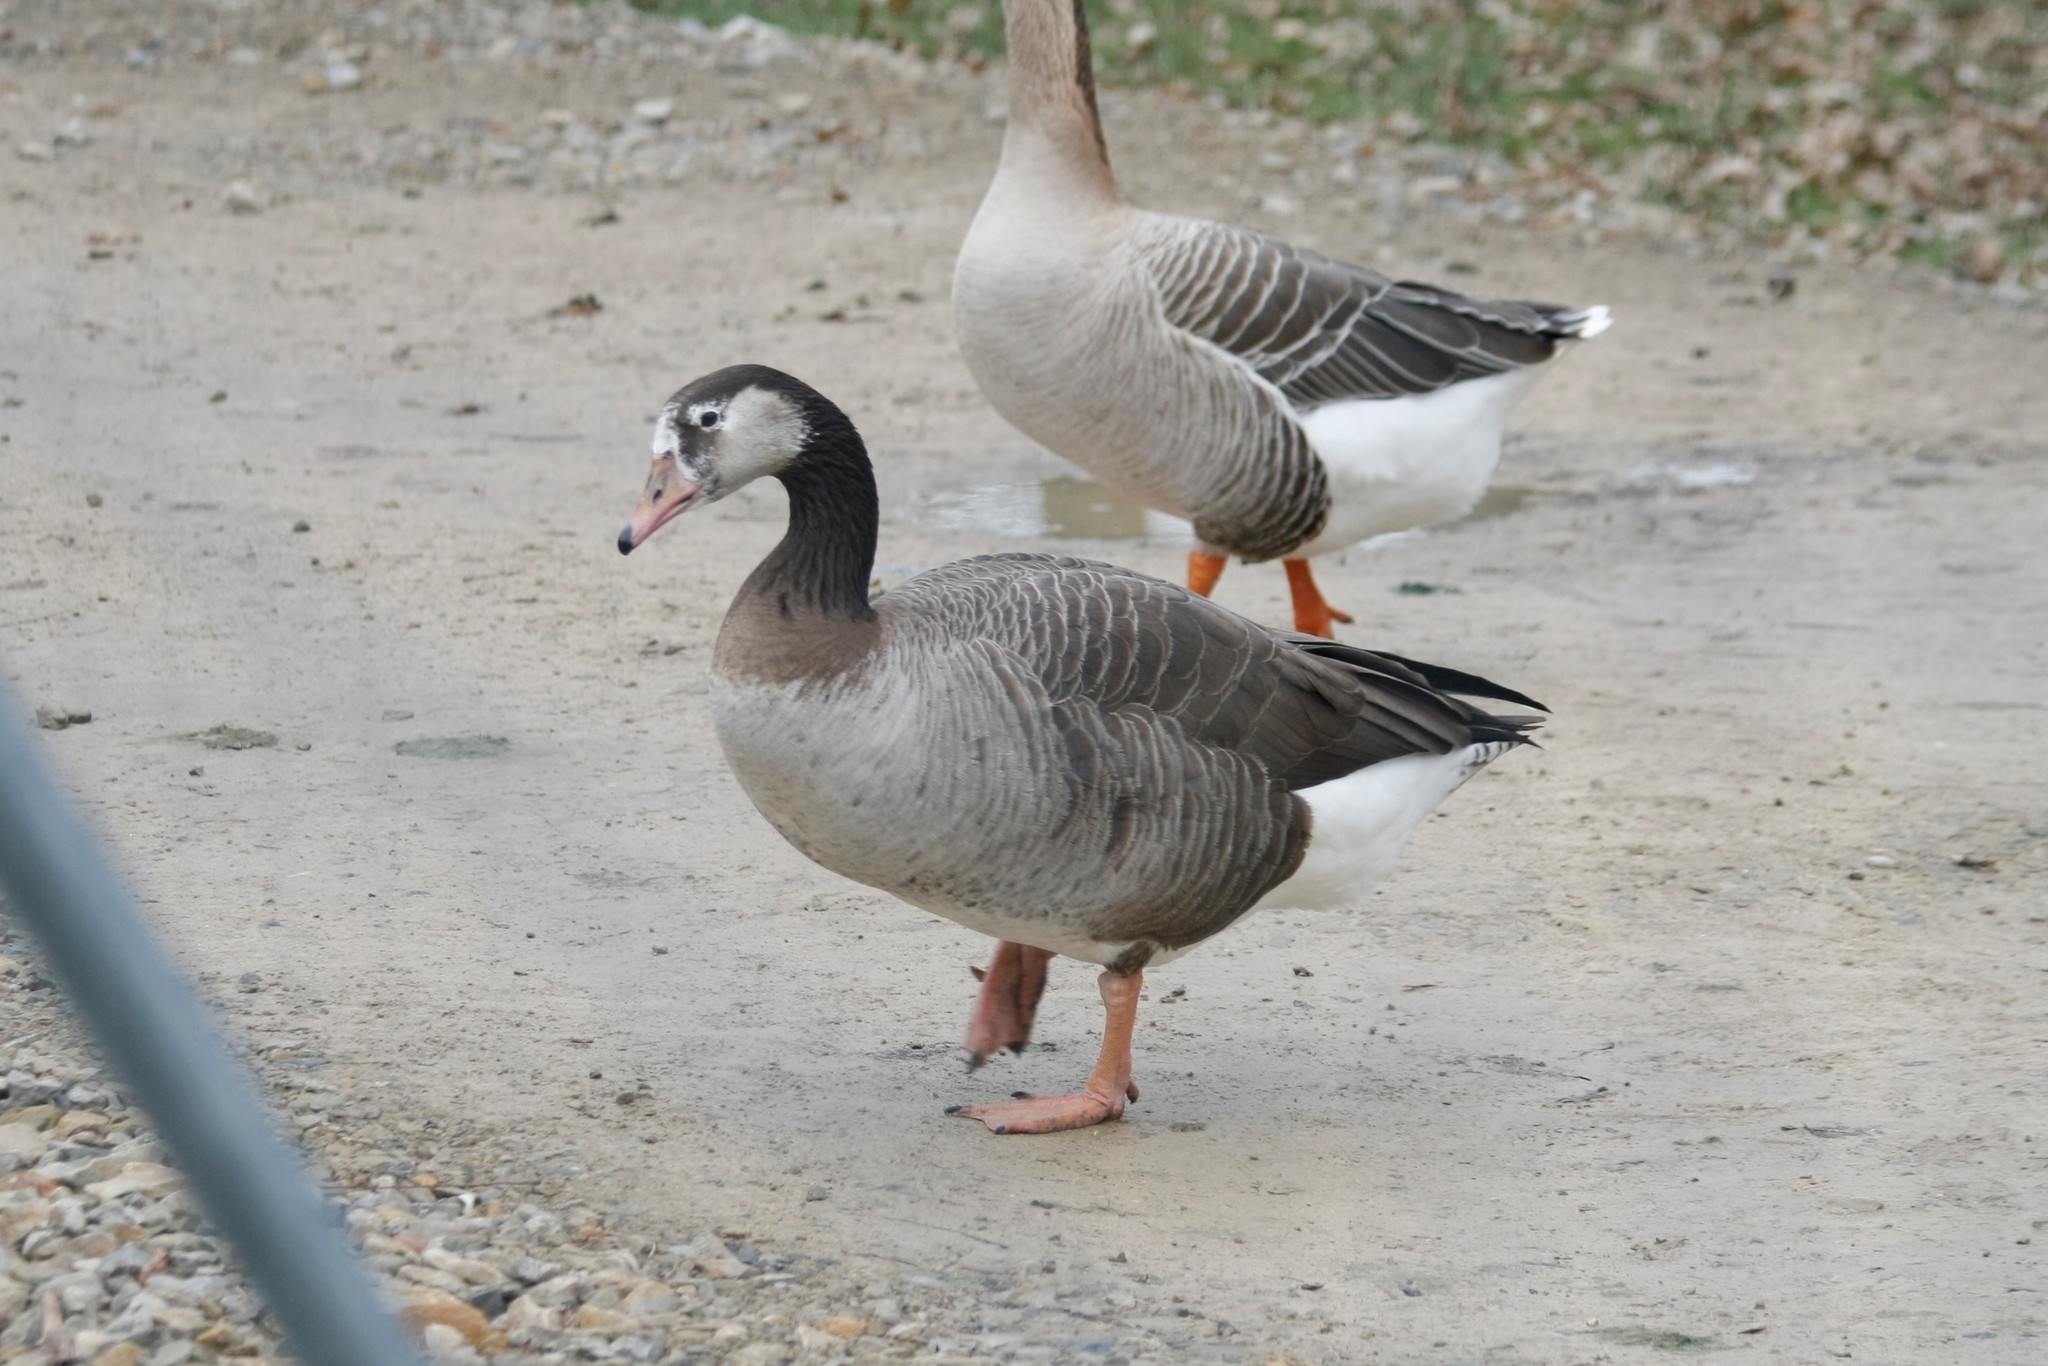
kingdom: Animalia
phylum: Chordata
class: Aves
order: Anseriformes
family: Anatidae
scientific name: Anatidae
